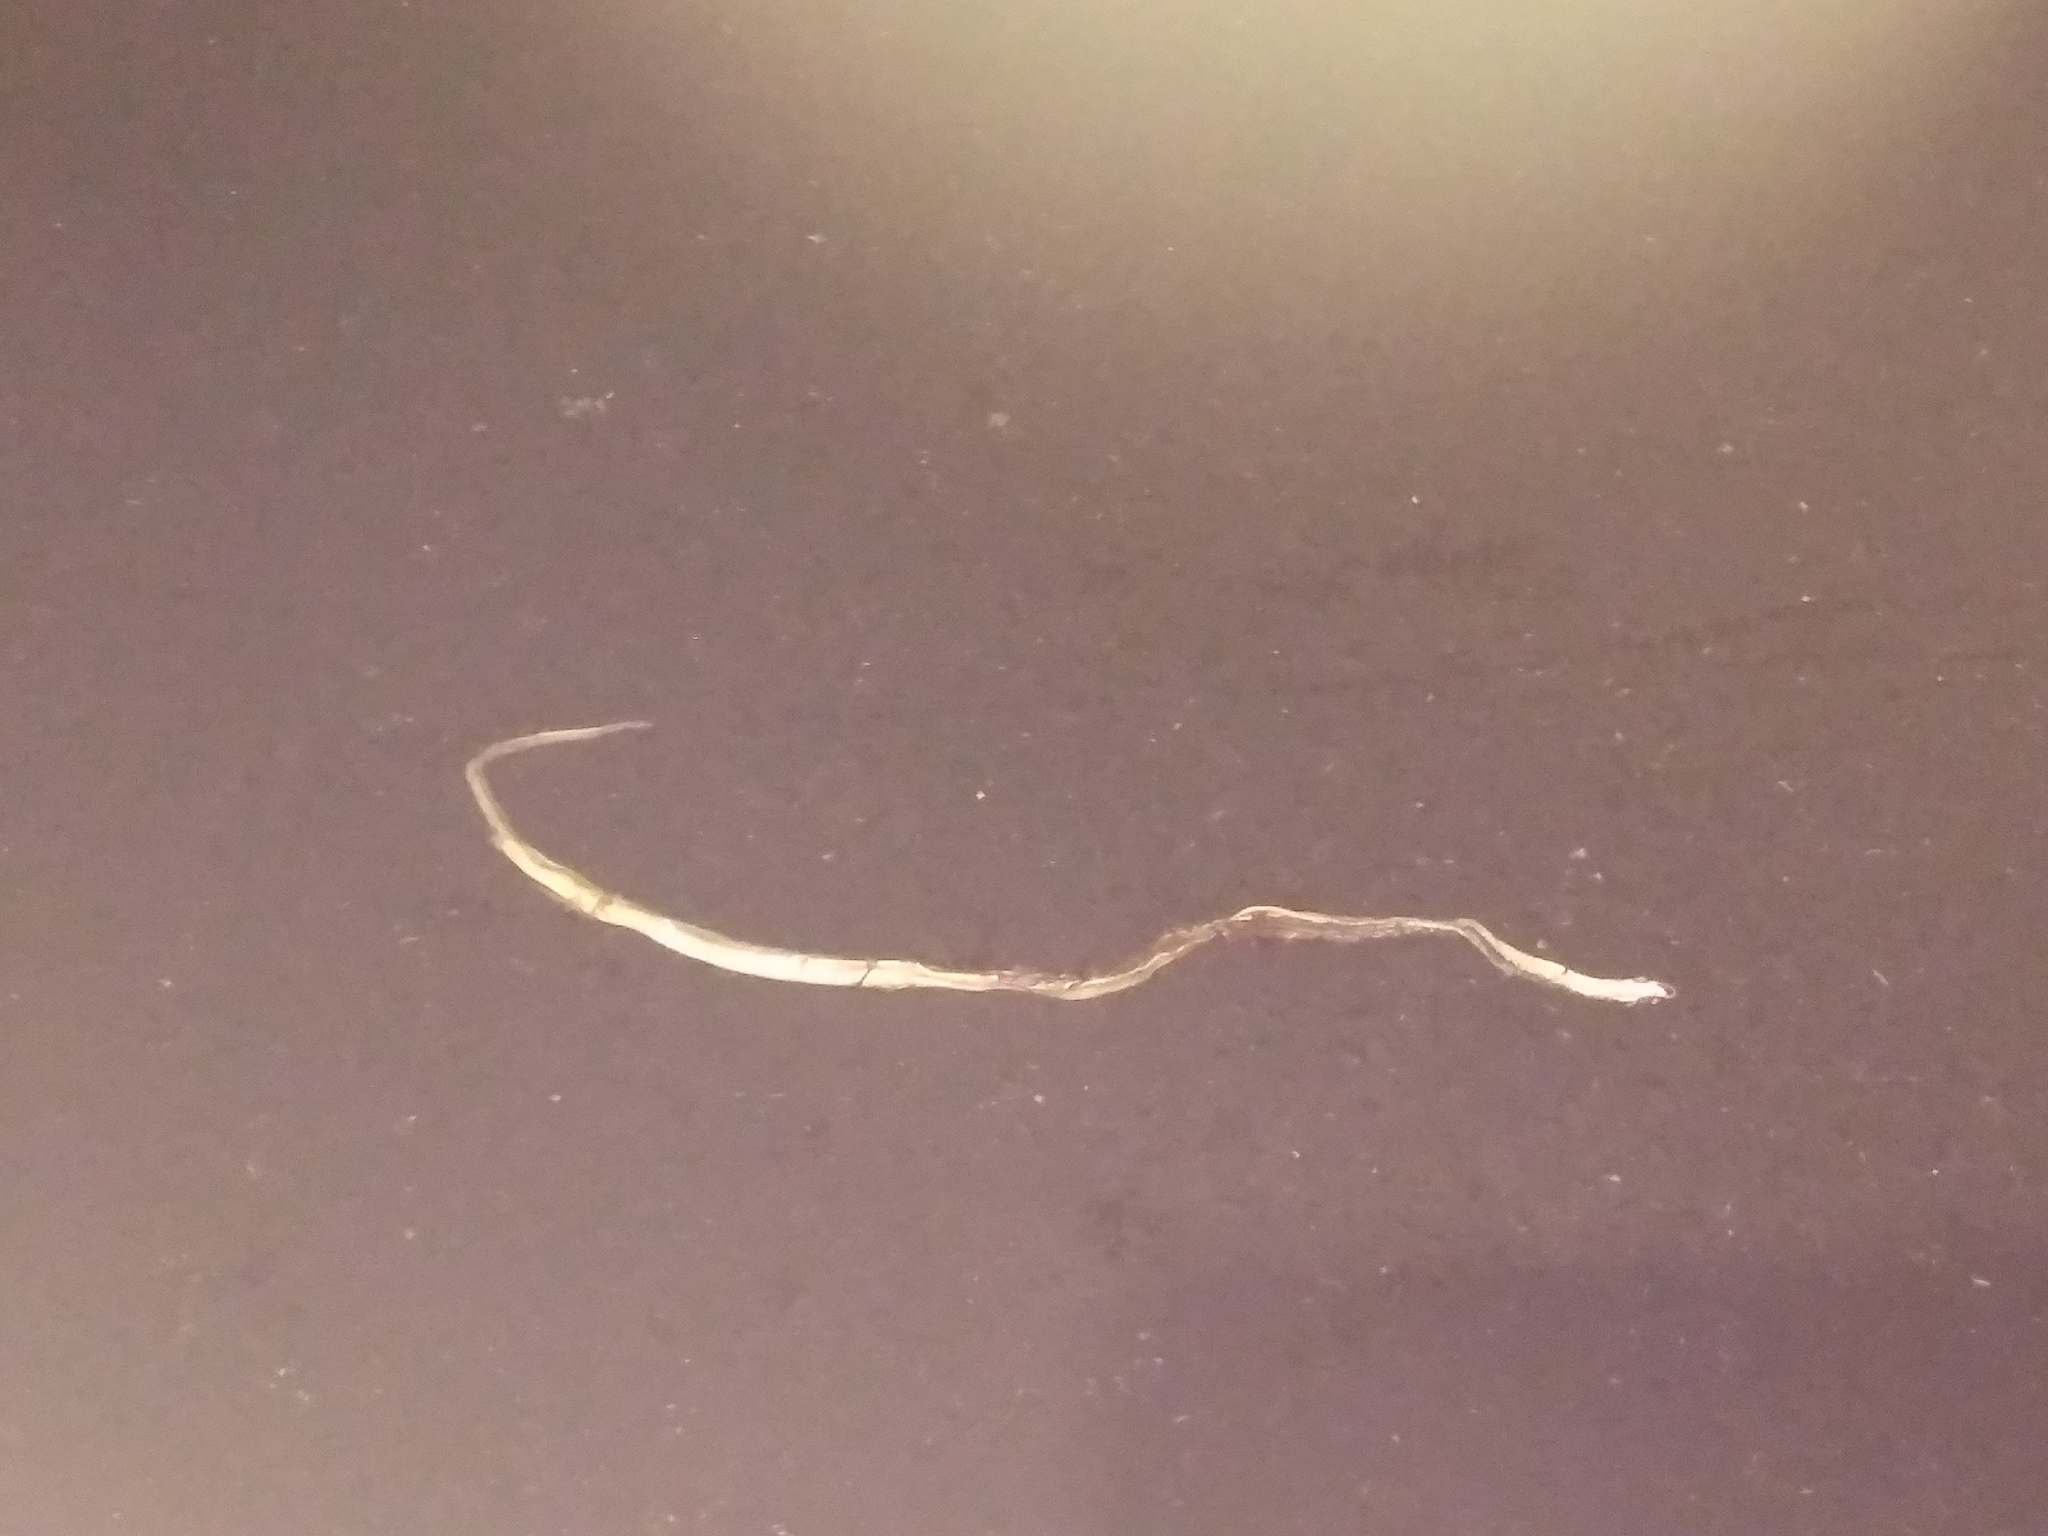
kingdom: Animalia
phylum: Chordata
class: Squamata
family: Colubridae
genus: Thamnophis
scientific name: Thamnophis saurita
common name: Eastern ribbonsnake
